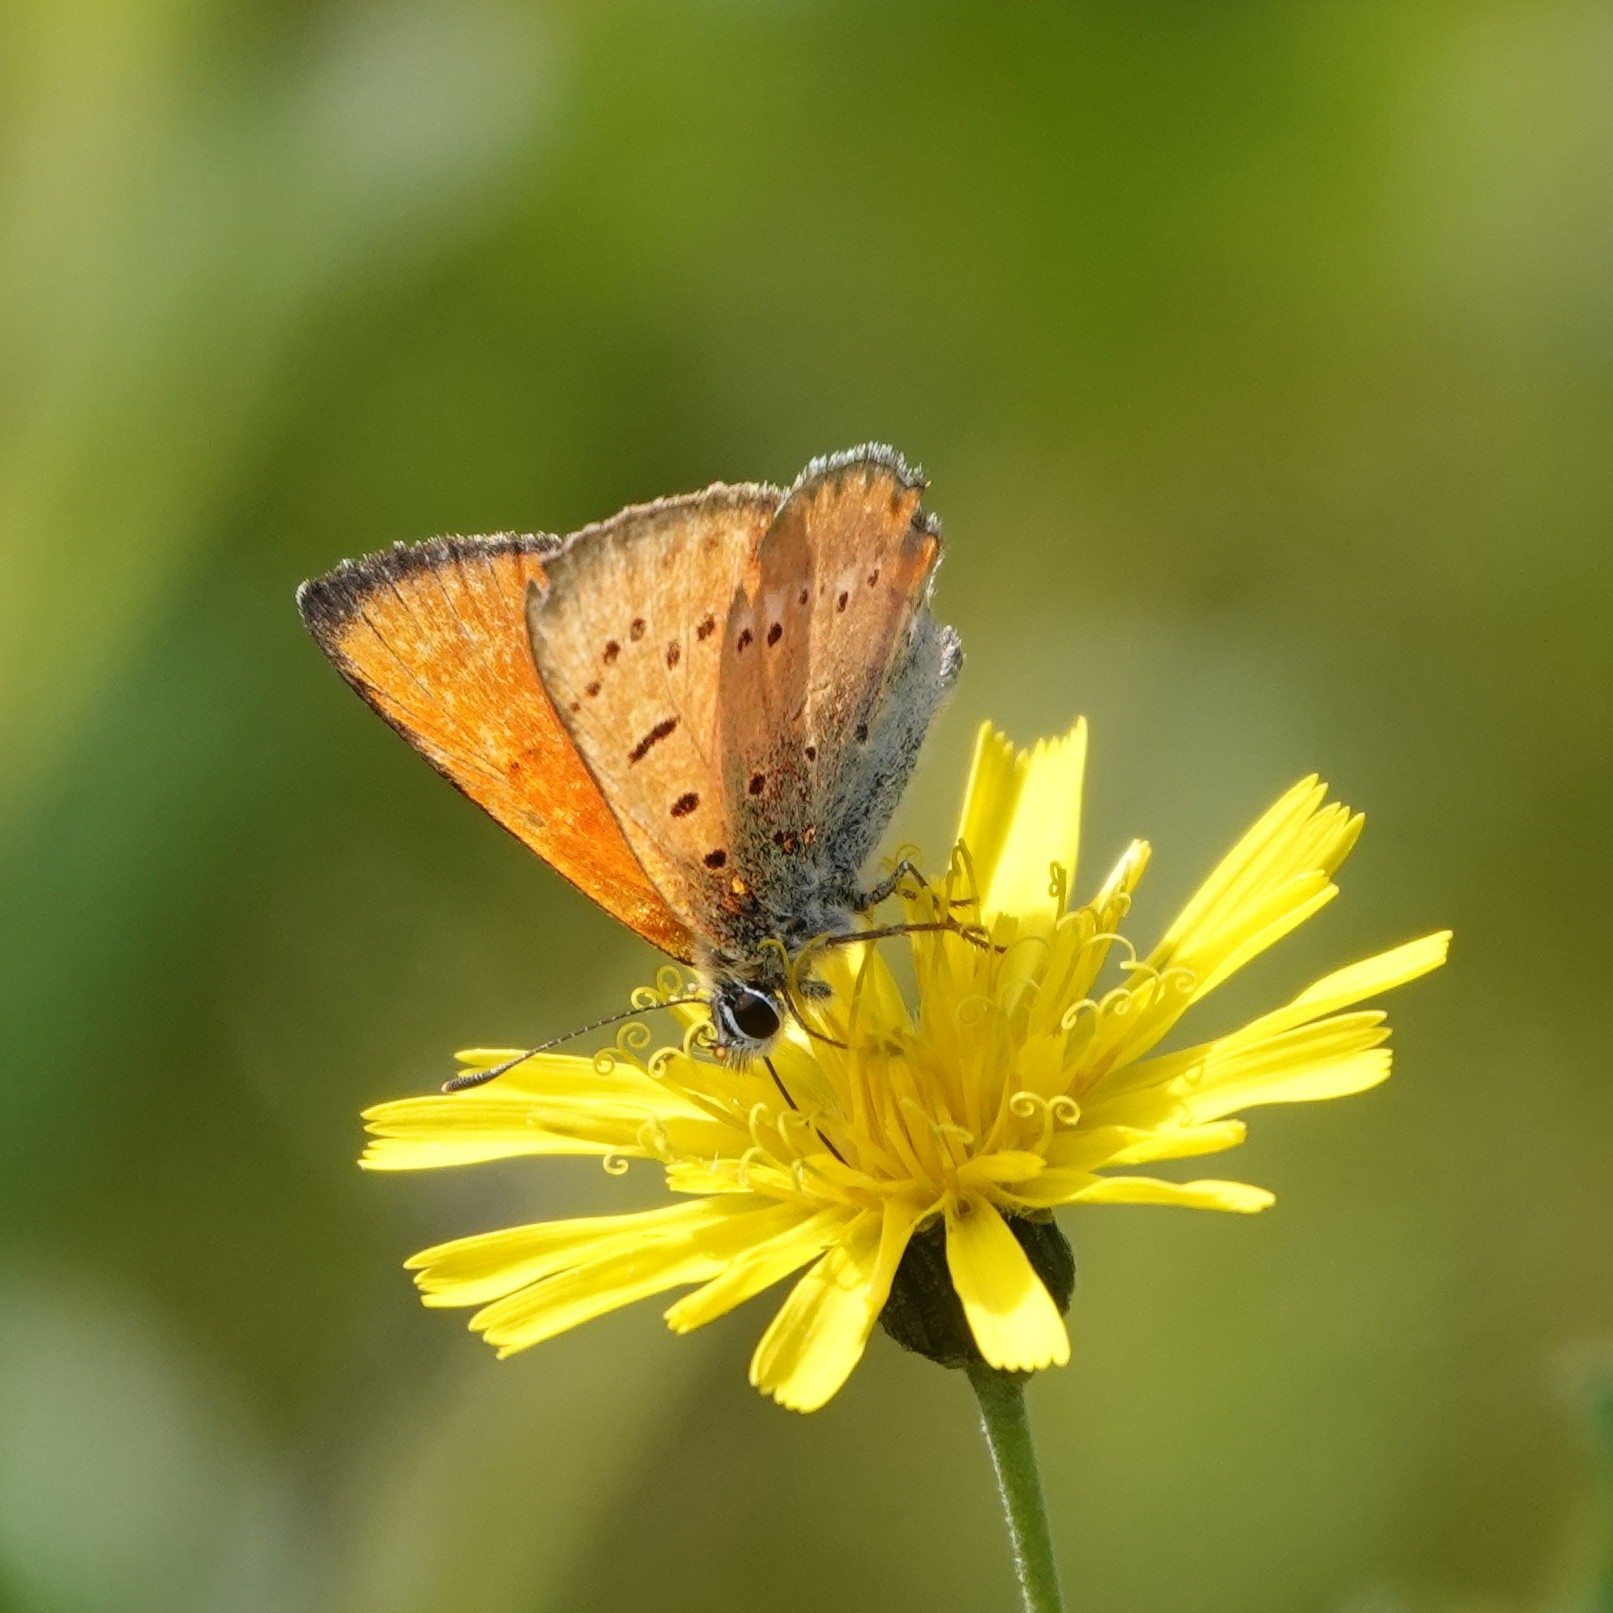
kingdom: Animalia
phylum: Arthropoda
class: Insecta
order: Lepidoptera
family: Lycaenidae
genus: Lycaena
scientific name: Lycaena virgaureae
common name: Scarce copper
